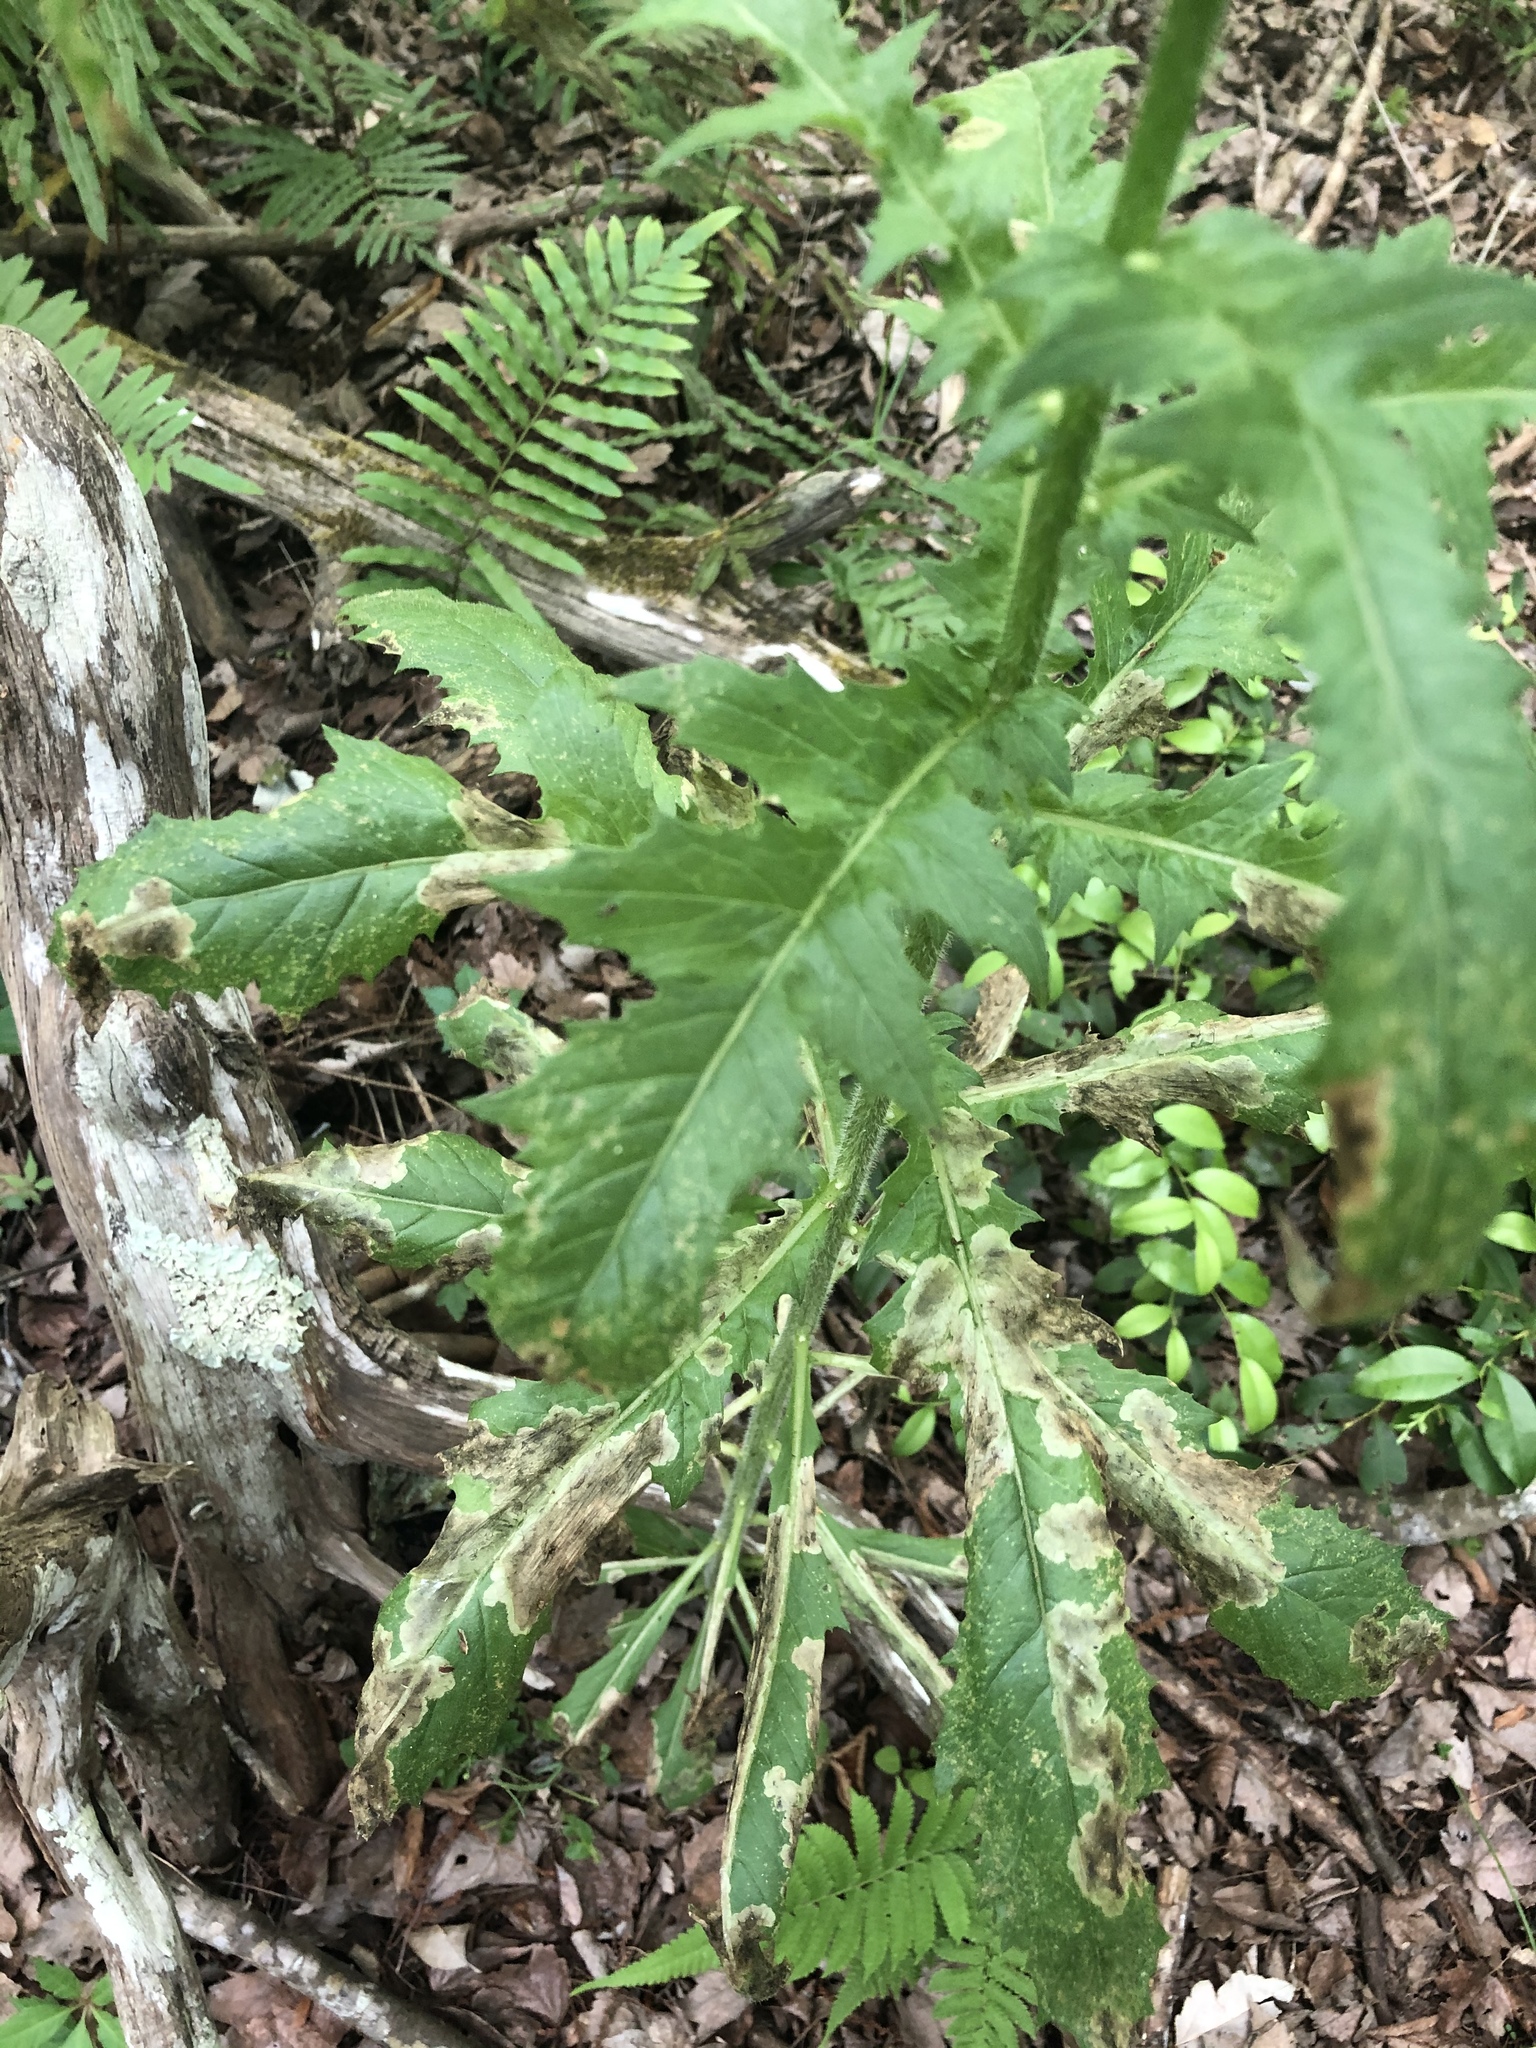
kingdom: Plantae
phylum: Tracheophyta
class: Magnoliopsida
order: Asterales
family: Asteraceae
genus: Erechtites
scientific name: Erechtites hieraciifolius
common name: American burnweed
